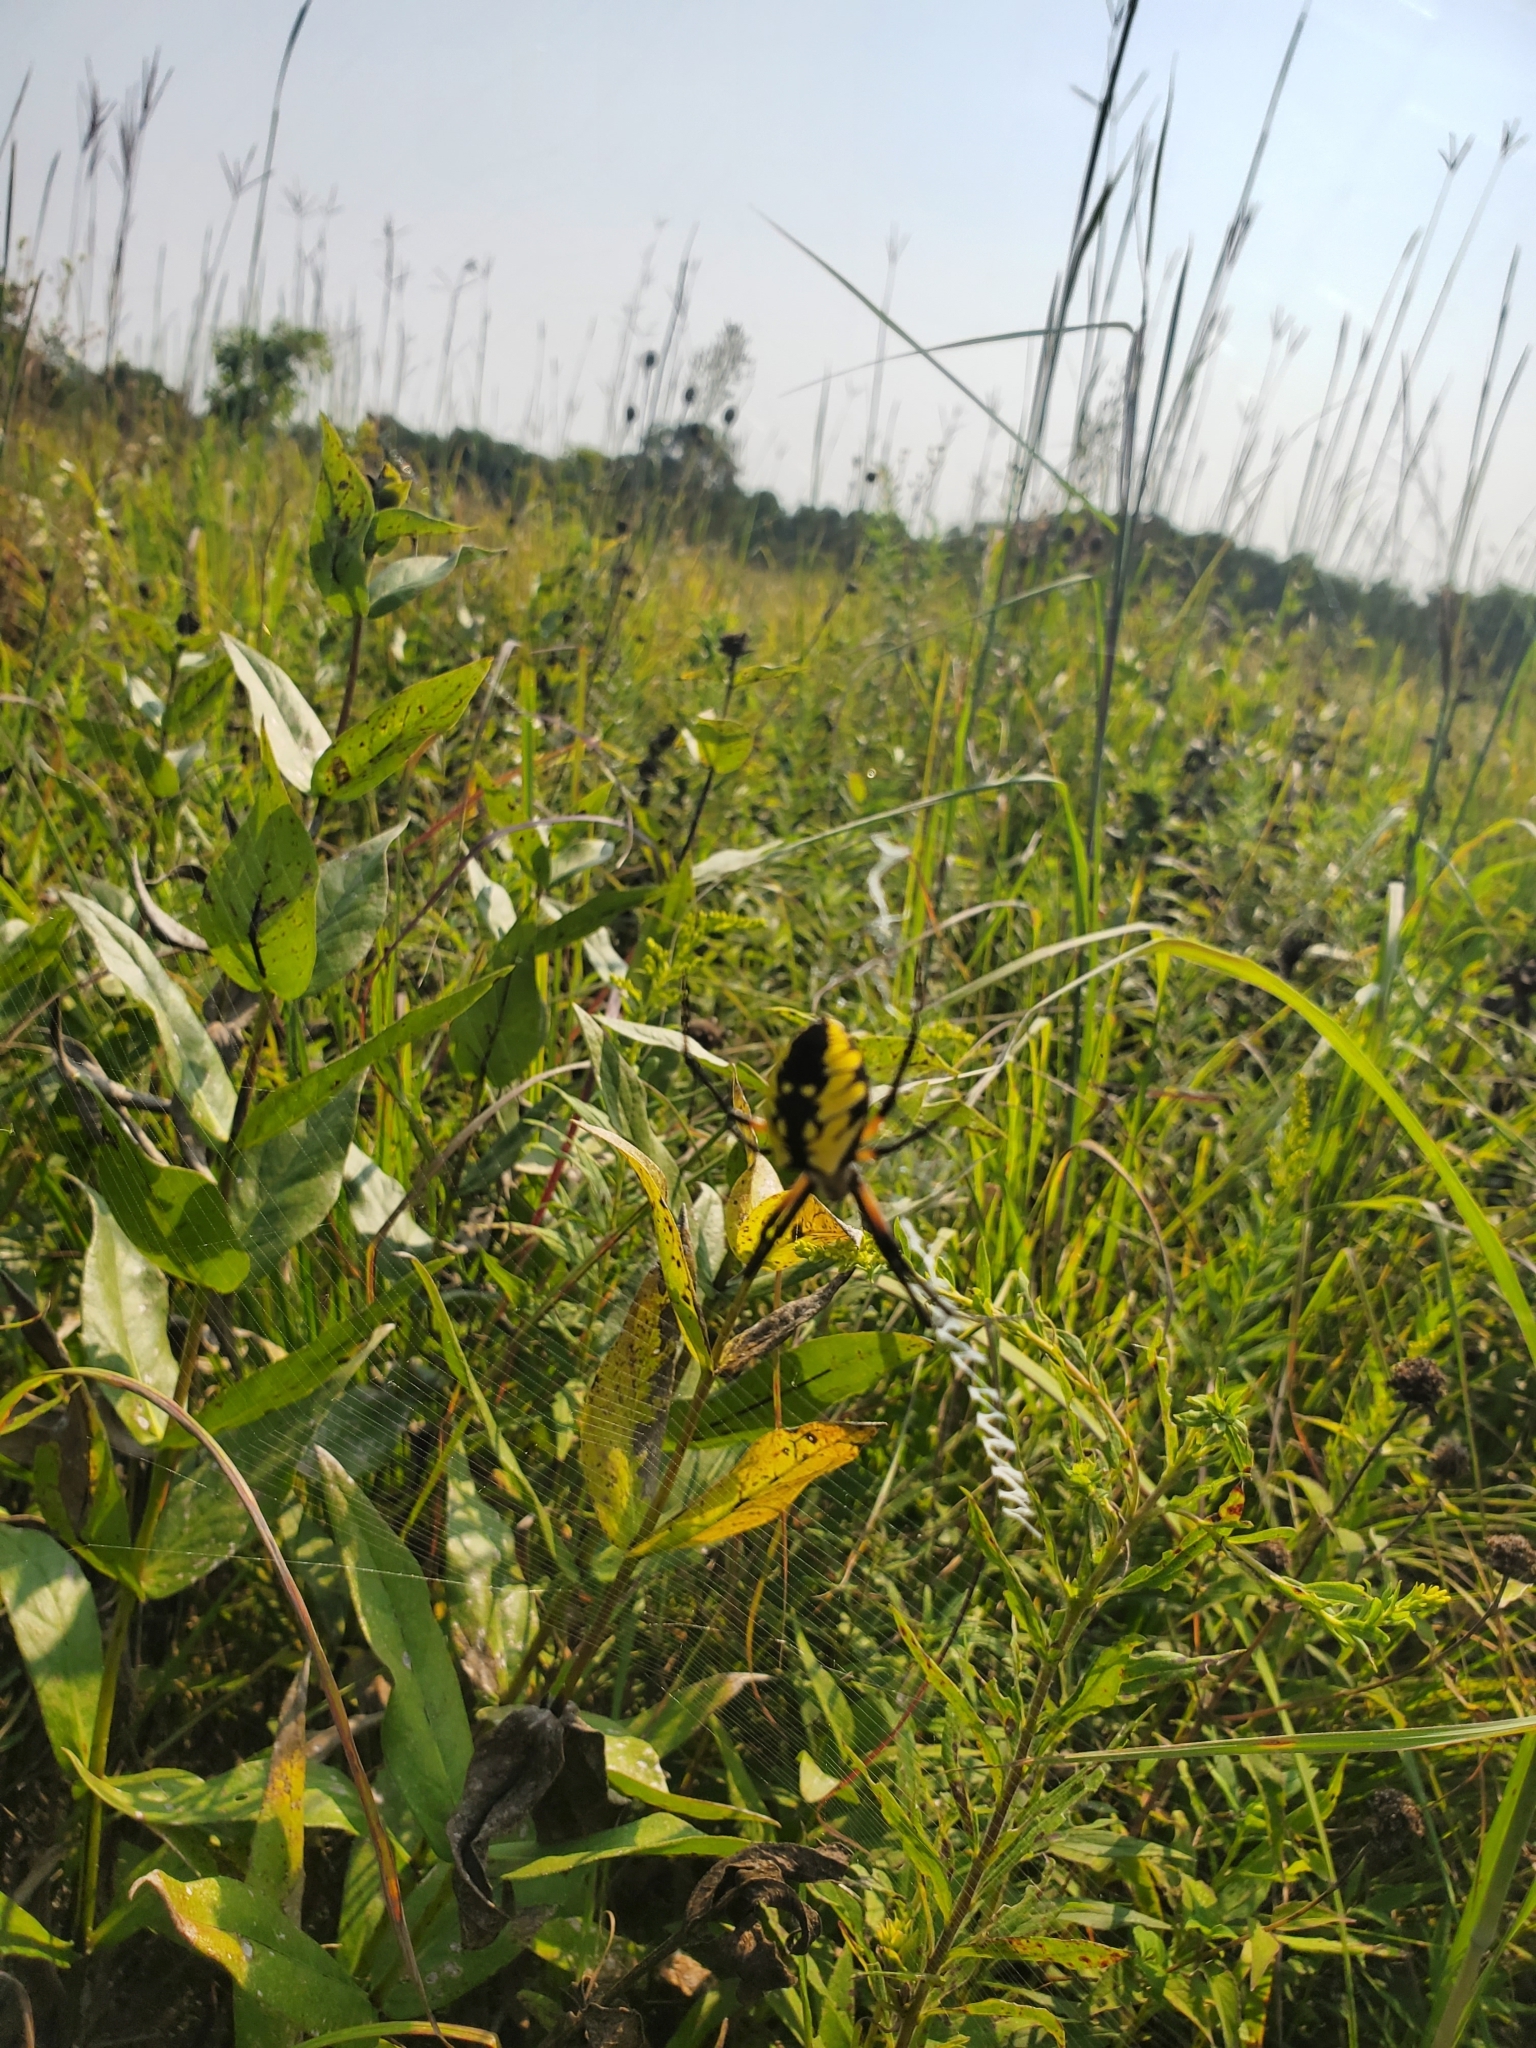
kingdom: Animalia
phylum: Arthropoda
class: Arachnida
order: Araneae
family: Araneidae
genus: Argiope
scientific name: Argiope aurantia
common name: Orb weavers
